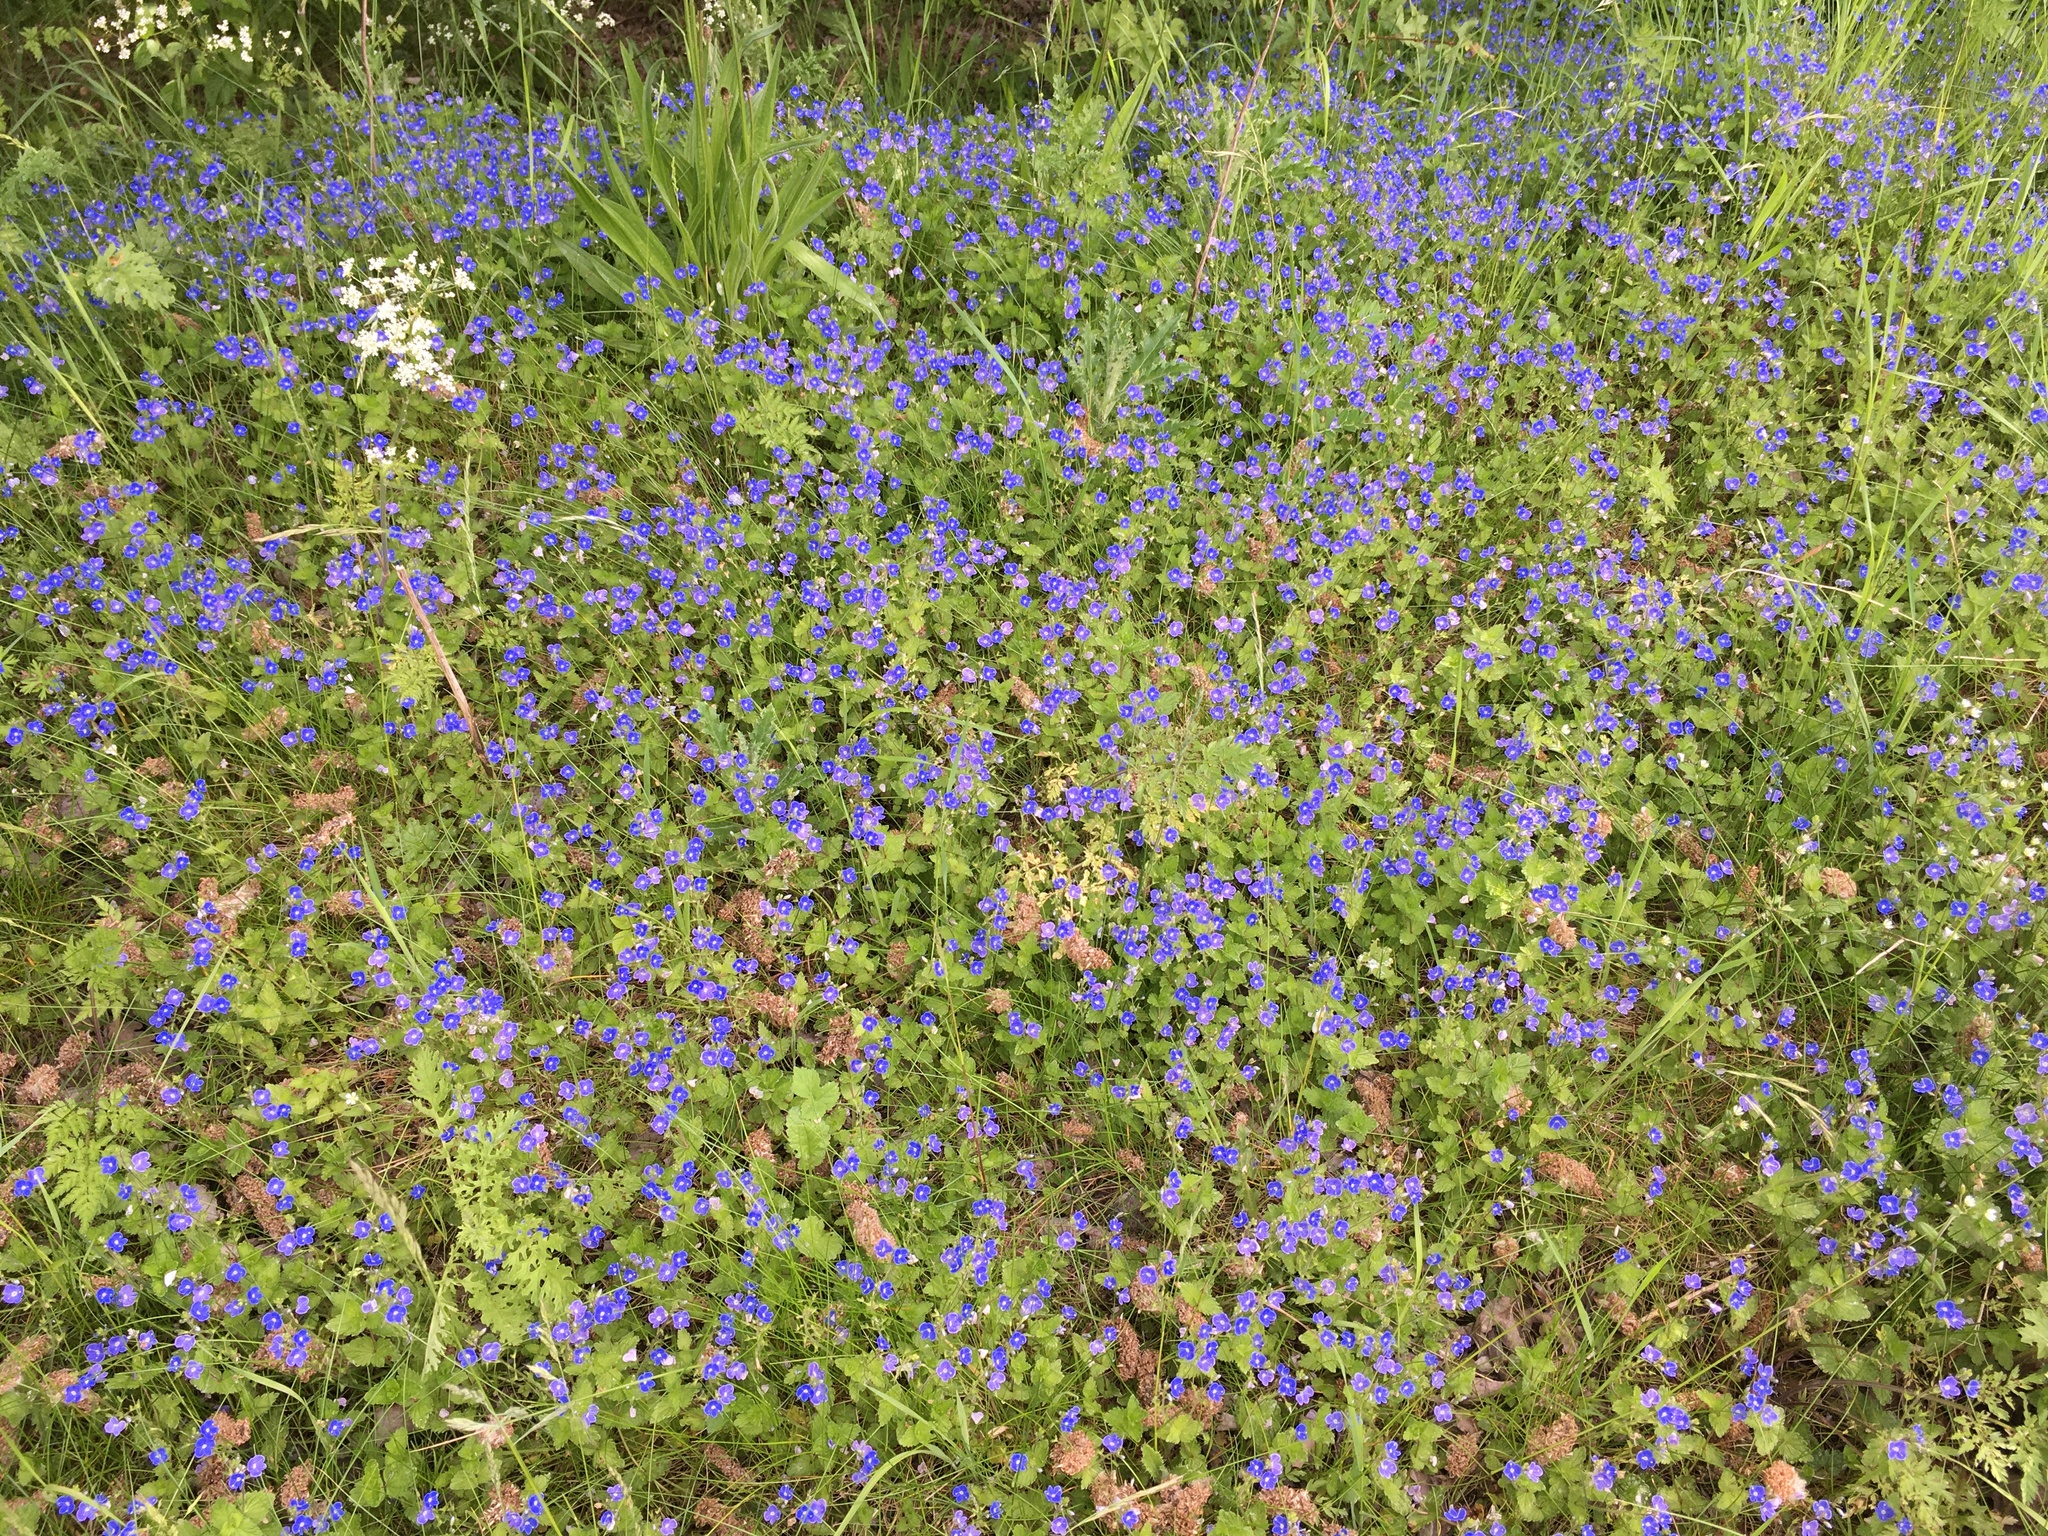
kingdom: Plantae
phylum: Tracheophyta
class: Magnoliopsida
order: Lamiales
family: Plantaginaceae
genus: Veronica
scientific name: Veronica chamaedrys
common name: Germander speedwell
